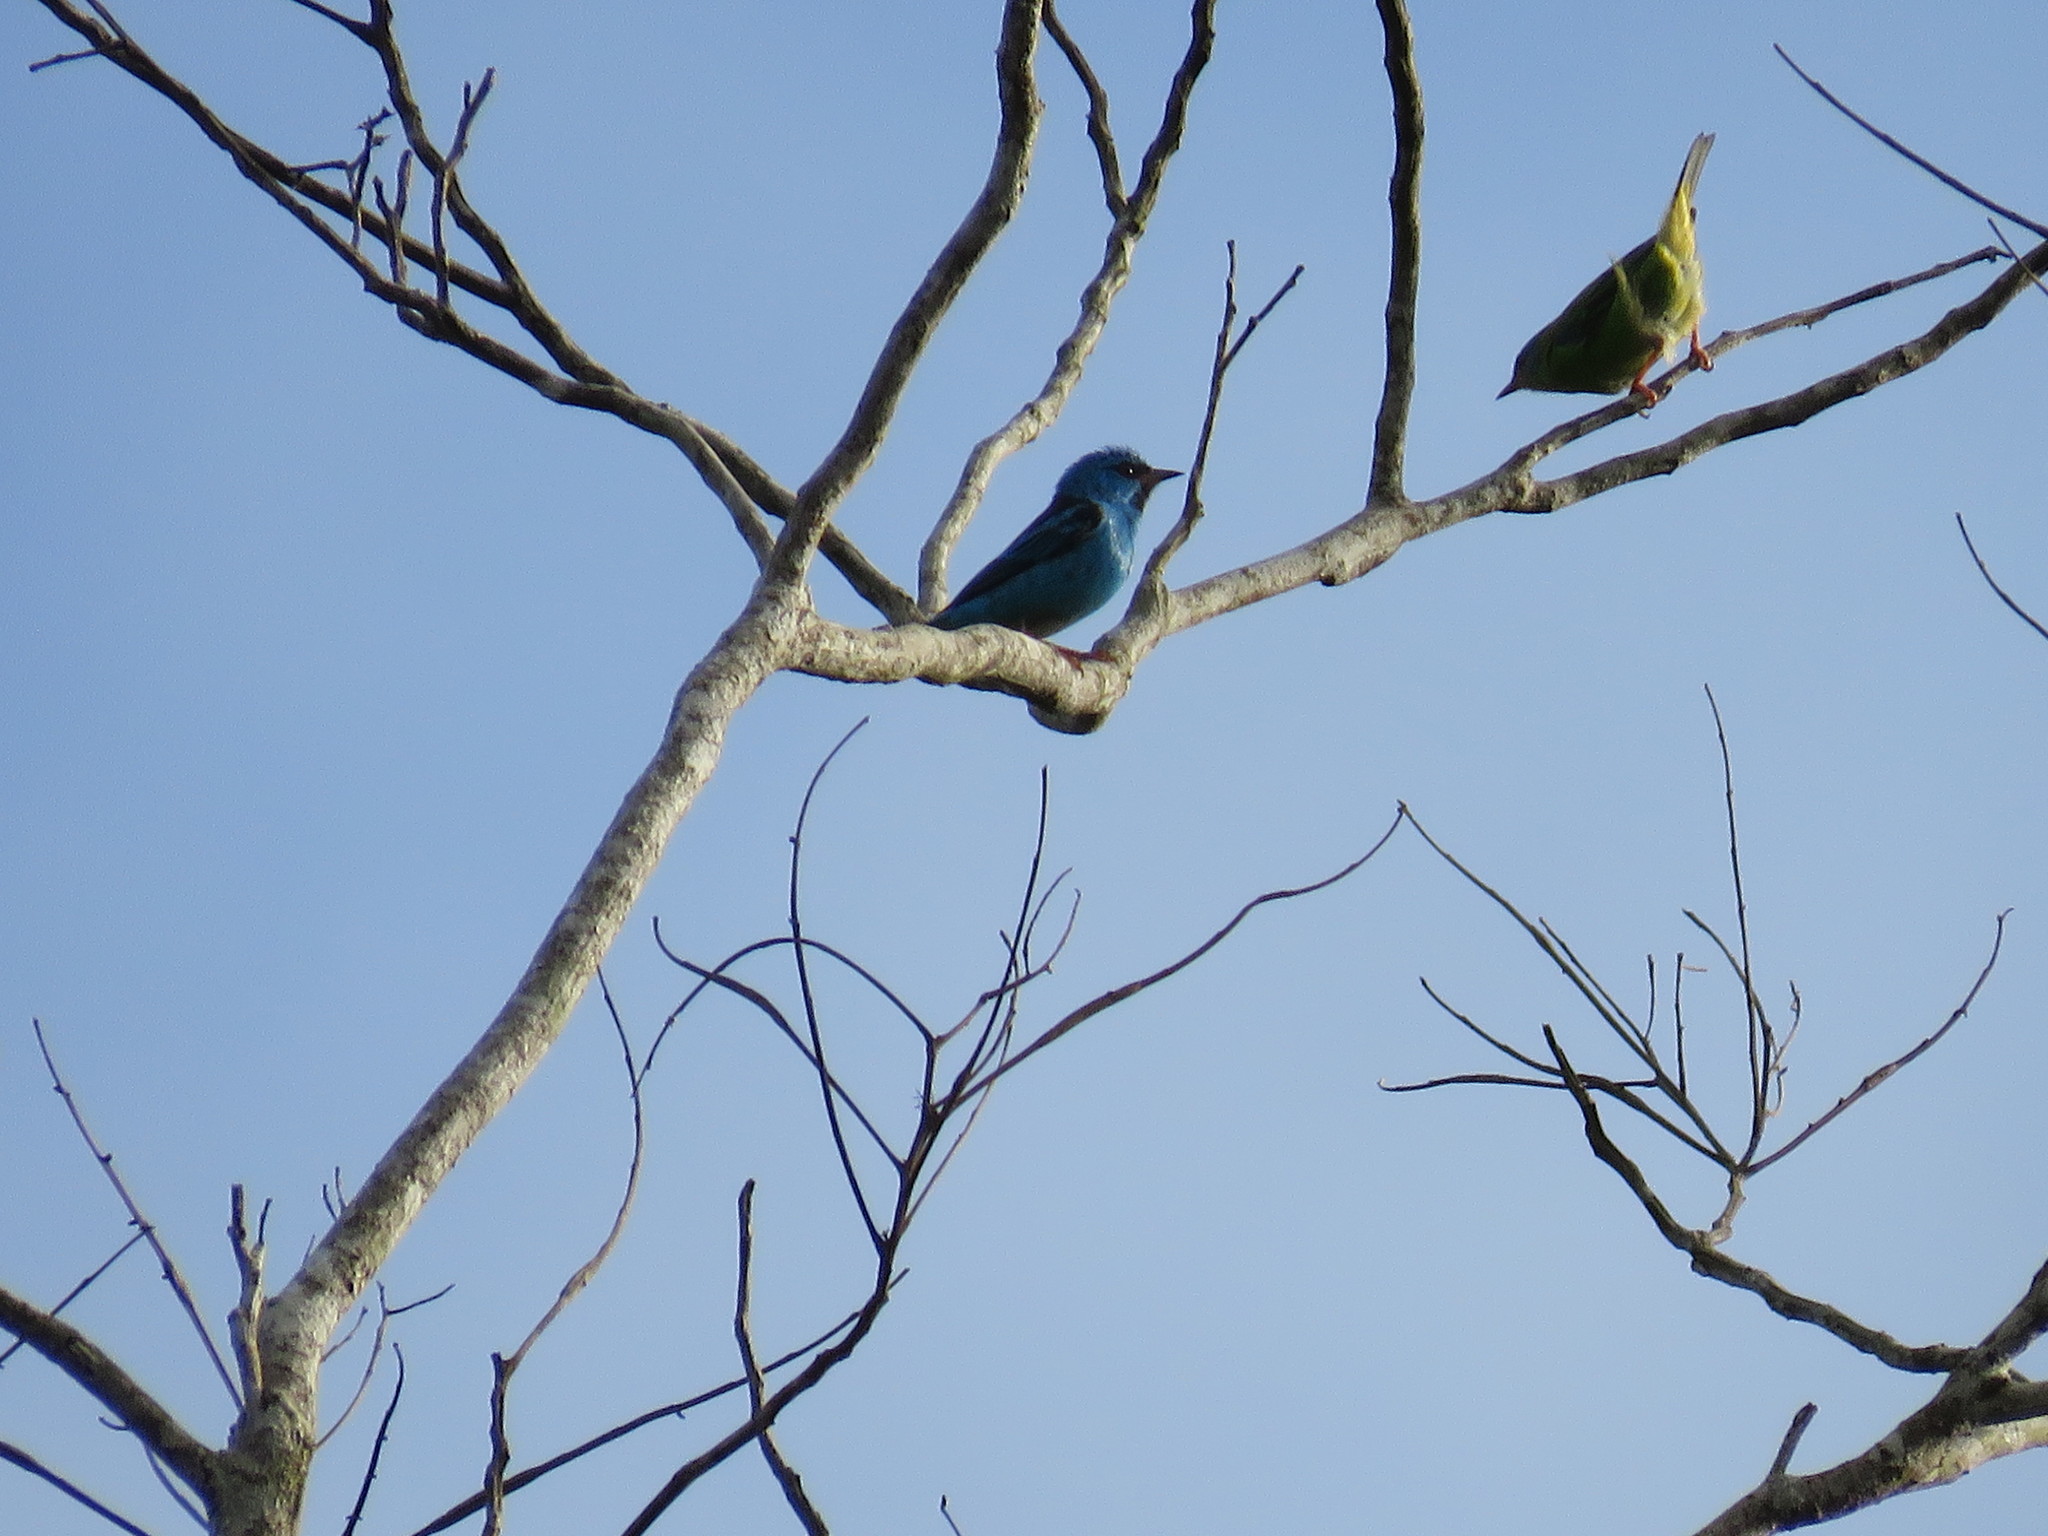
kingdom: Animalia
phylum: Chordata
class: Aves
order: Passeriformes
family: Thraupidae
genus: Dacnis
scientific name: Dacnis cayana
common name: Blue dacnis
